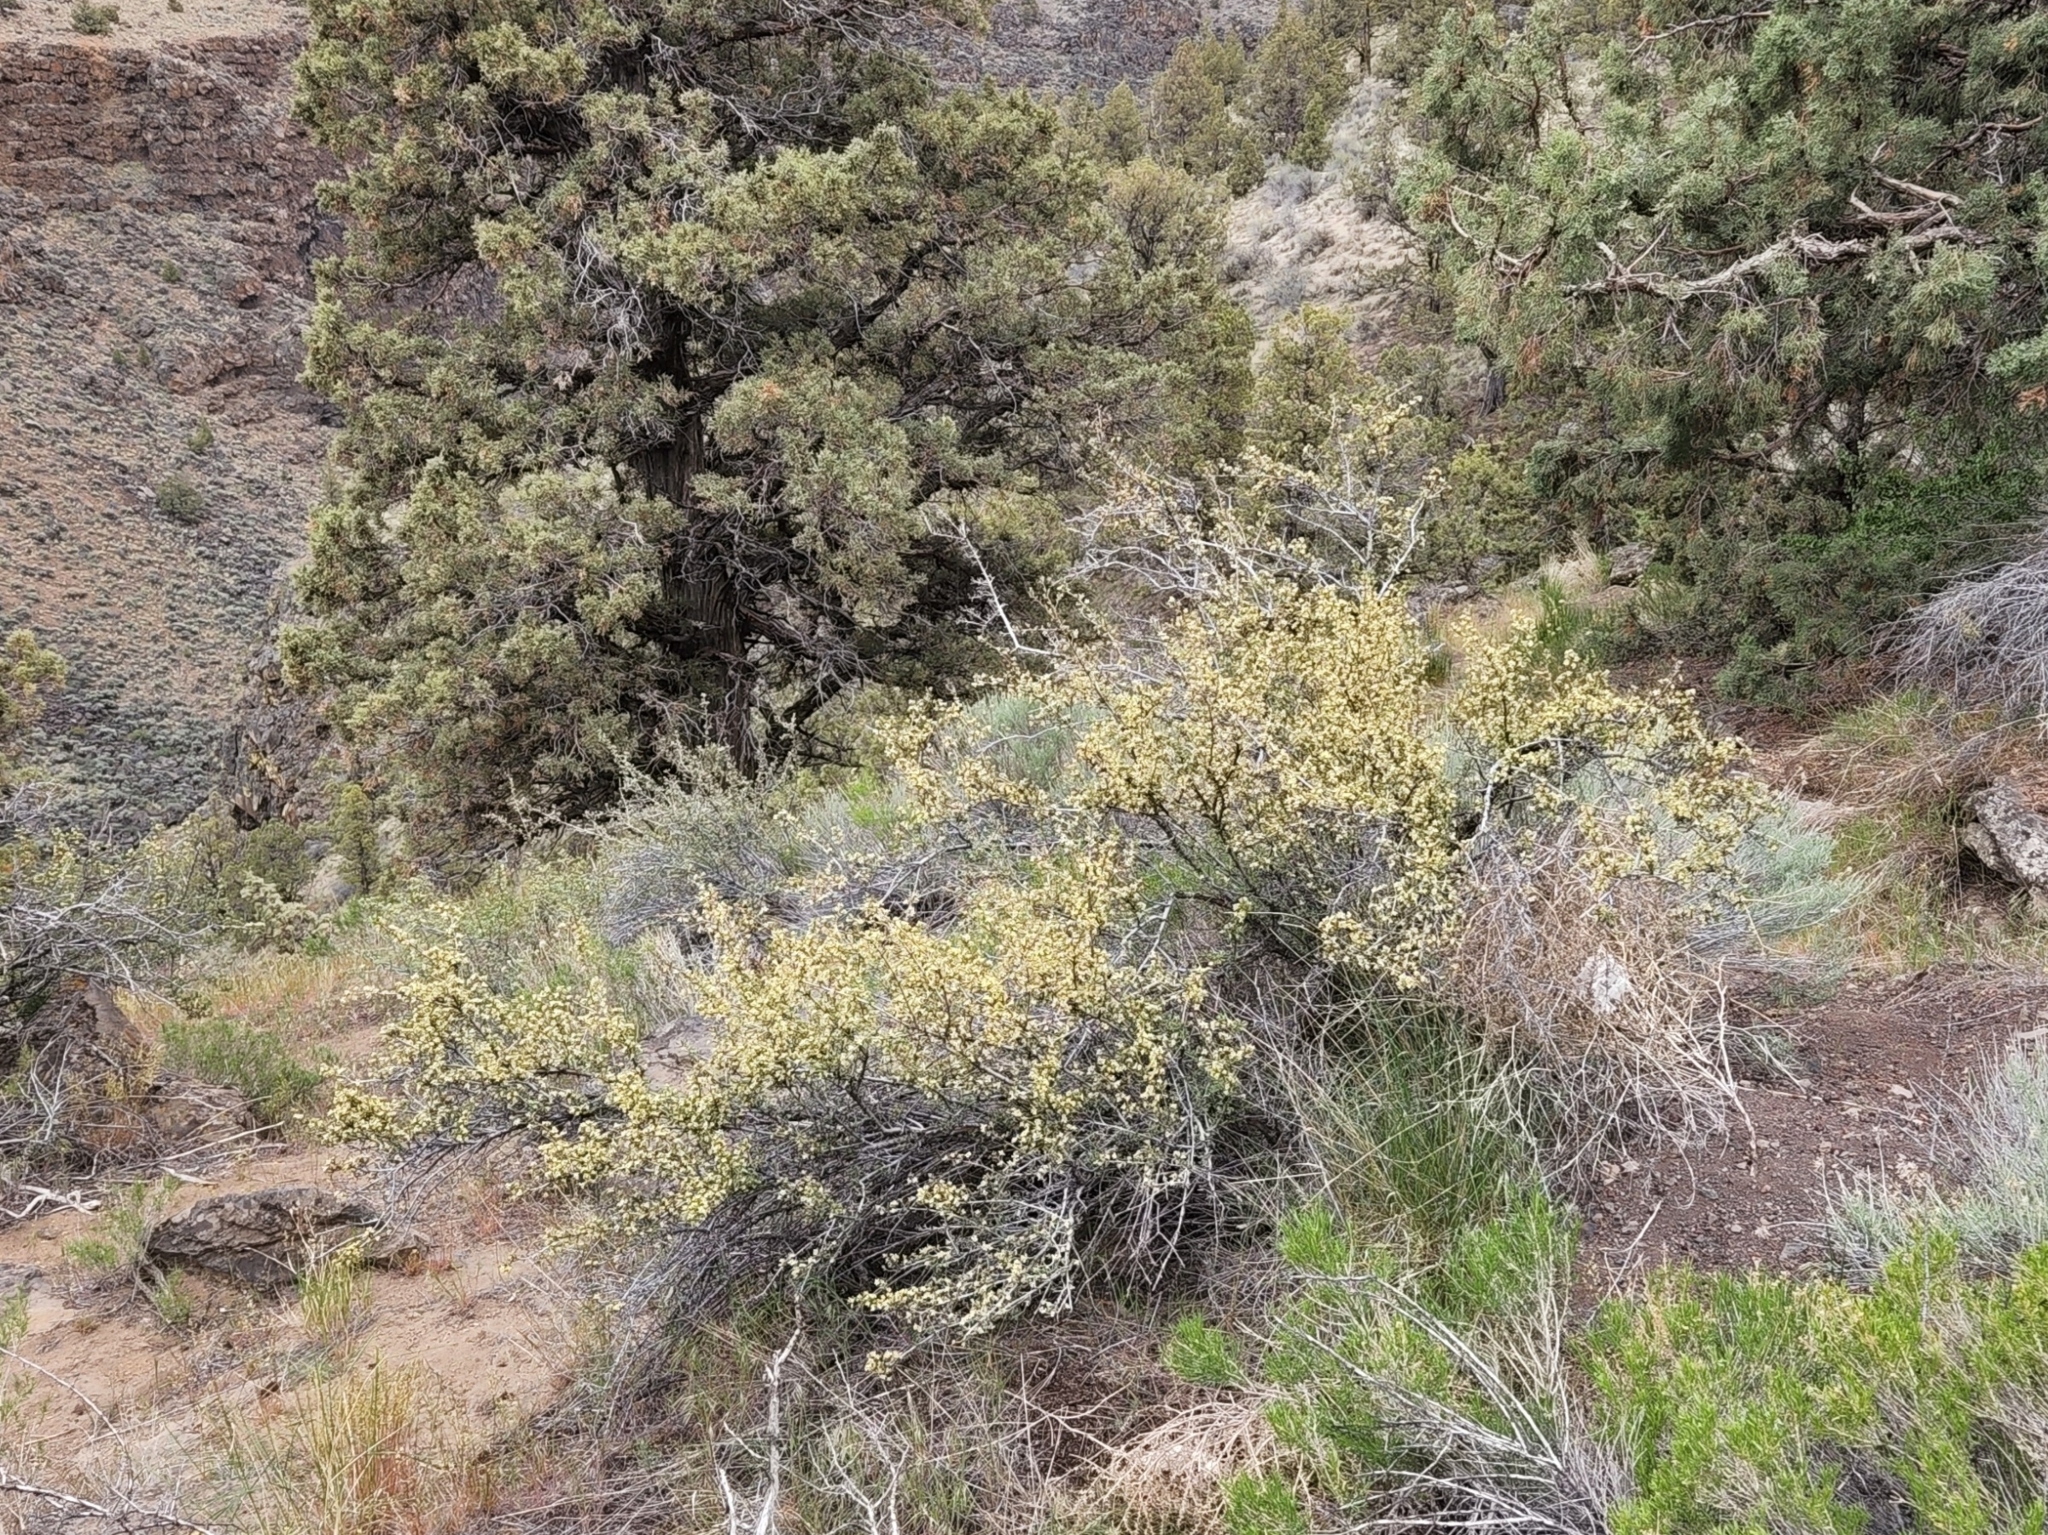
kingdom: Plantae
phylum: Tracheophyta
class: Magnoliopsida
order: Rosales
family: Rosaceae
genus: Purshia
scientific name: Purshia tridentata
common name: Antelope bitterbrush
